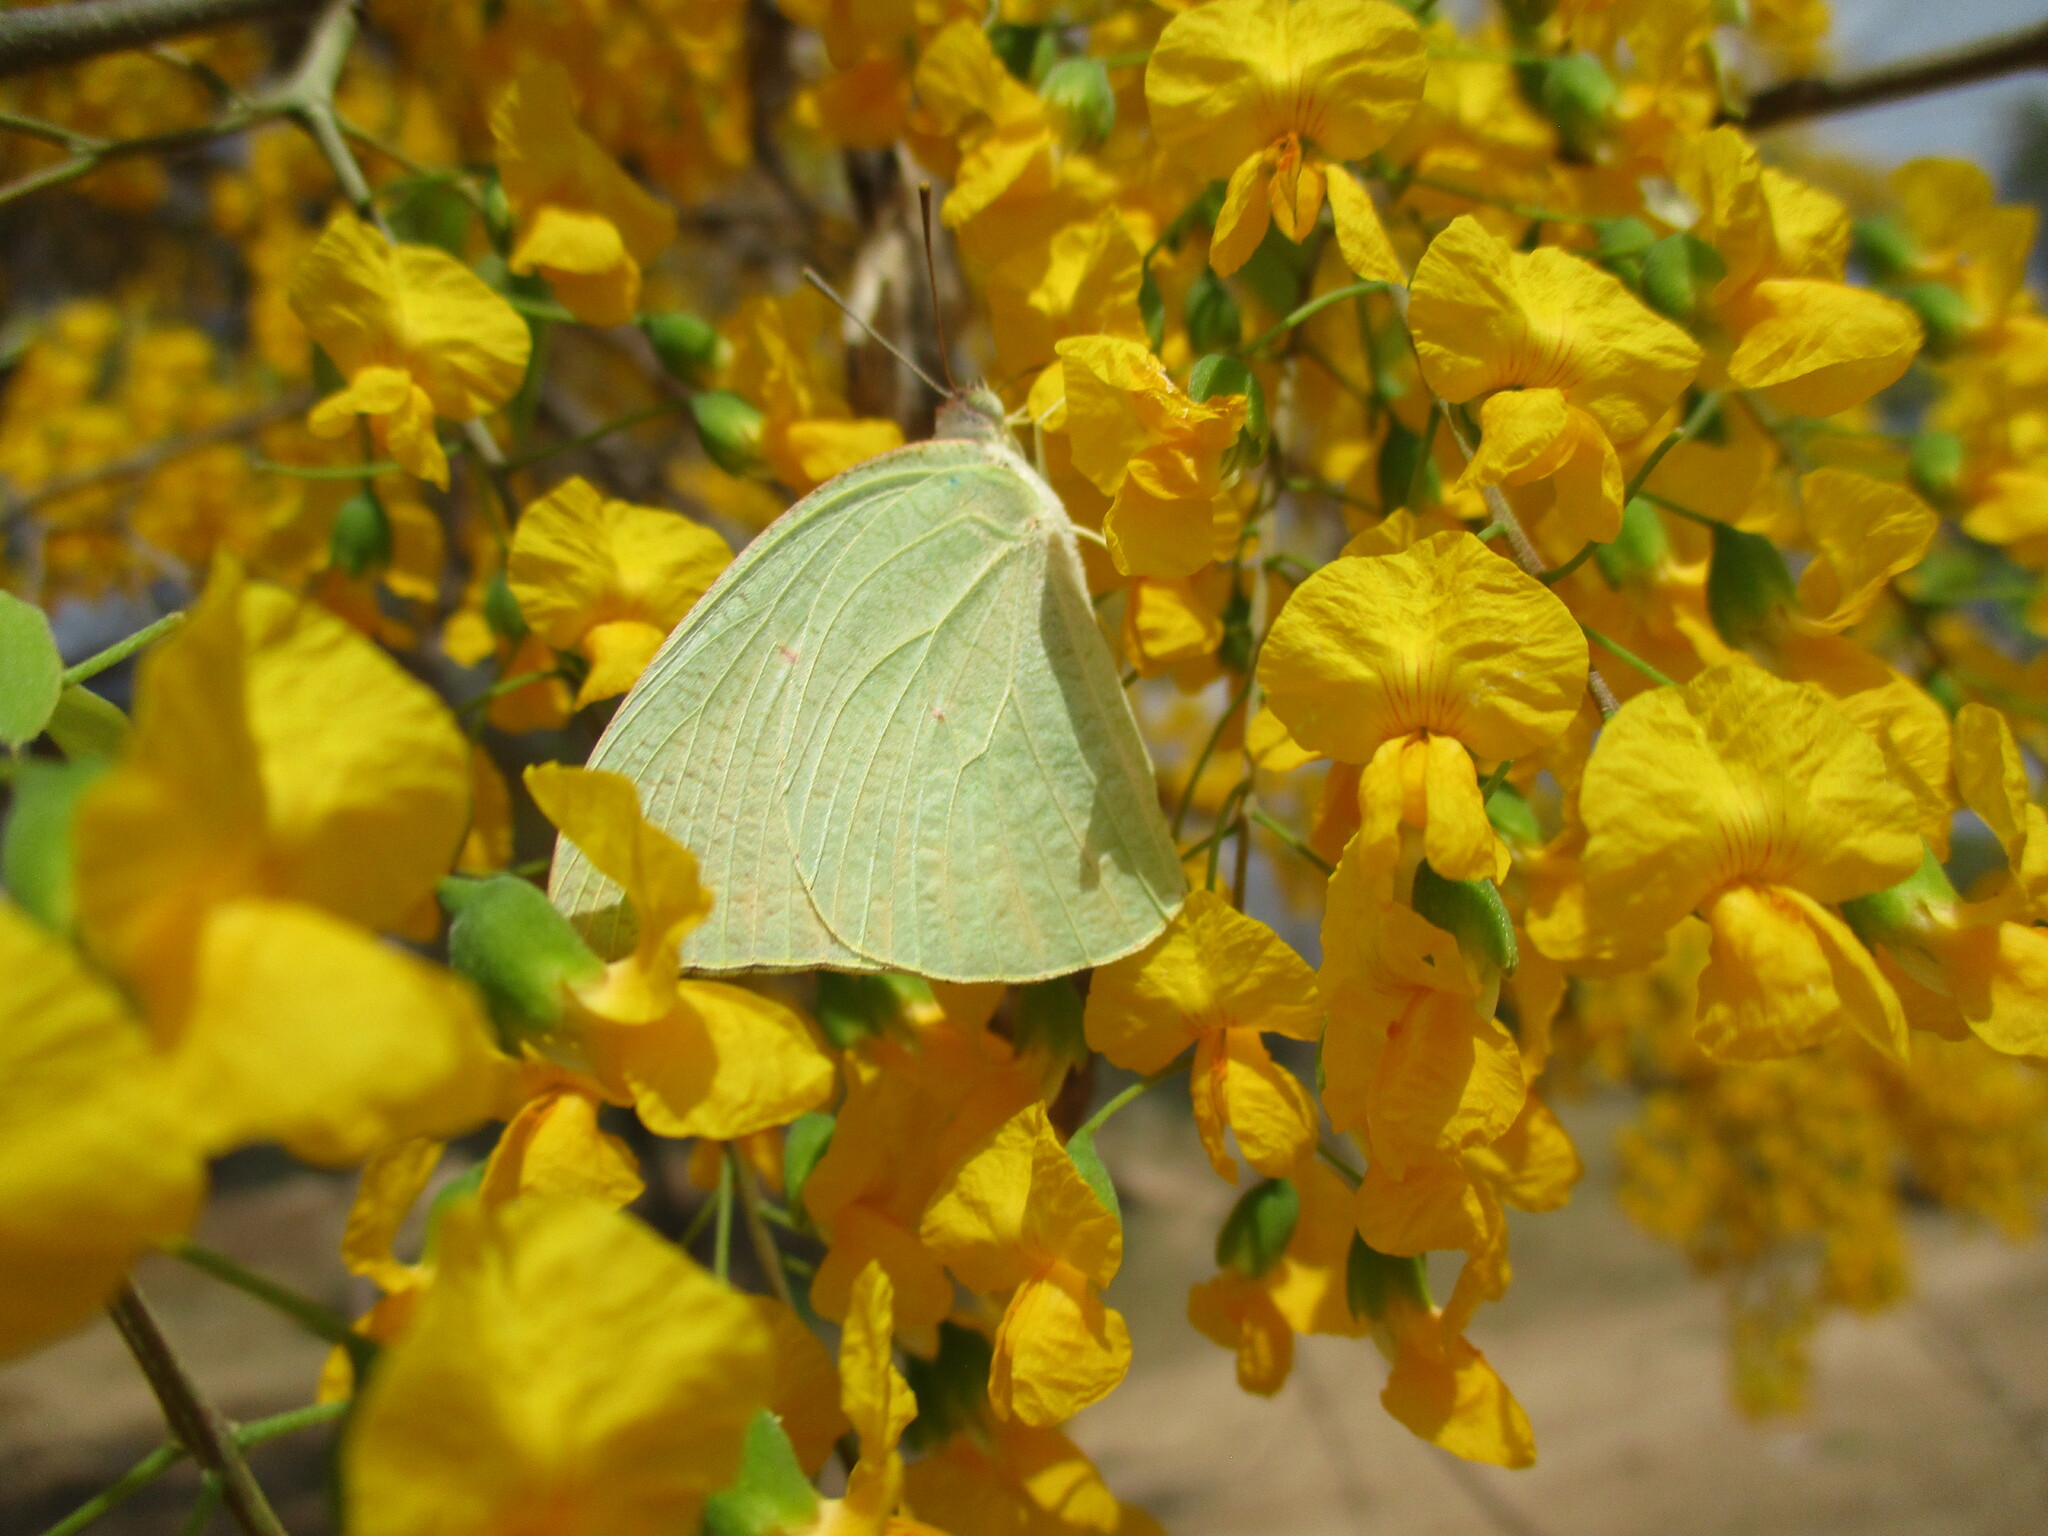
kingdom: Animalia
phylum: Arthropoda
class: Insecta
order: Lepidoptera
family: Pieridae
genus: Catopsilia
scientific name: Catopsilia florella
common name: African migrant
